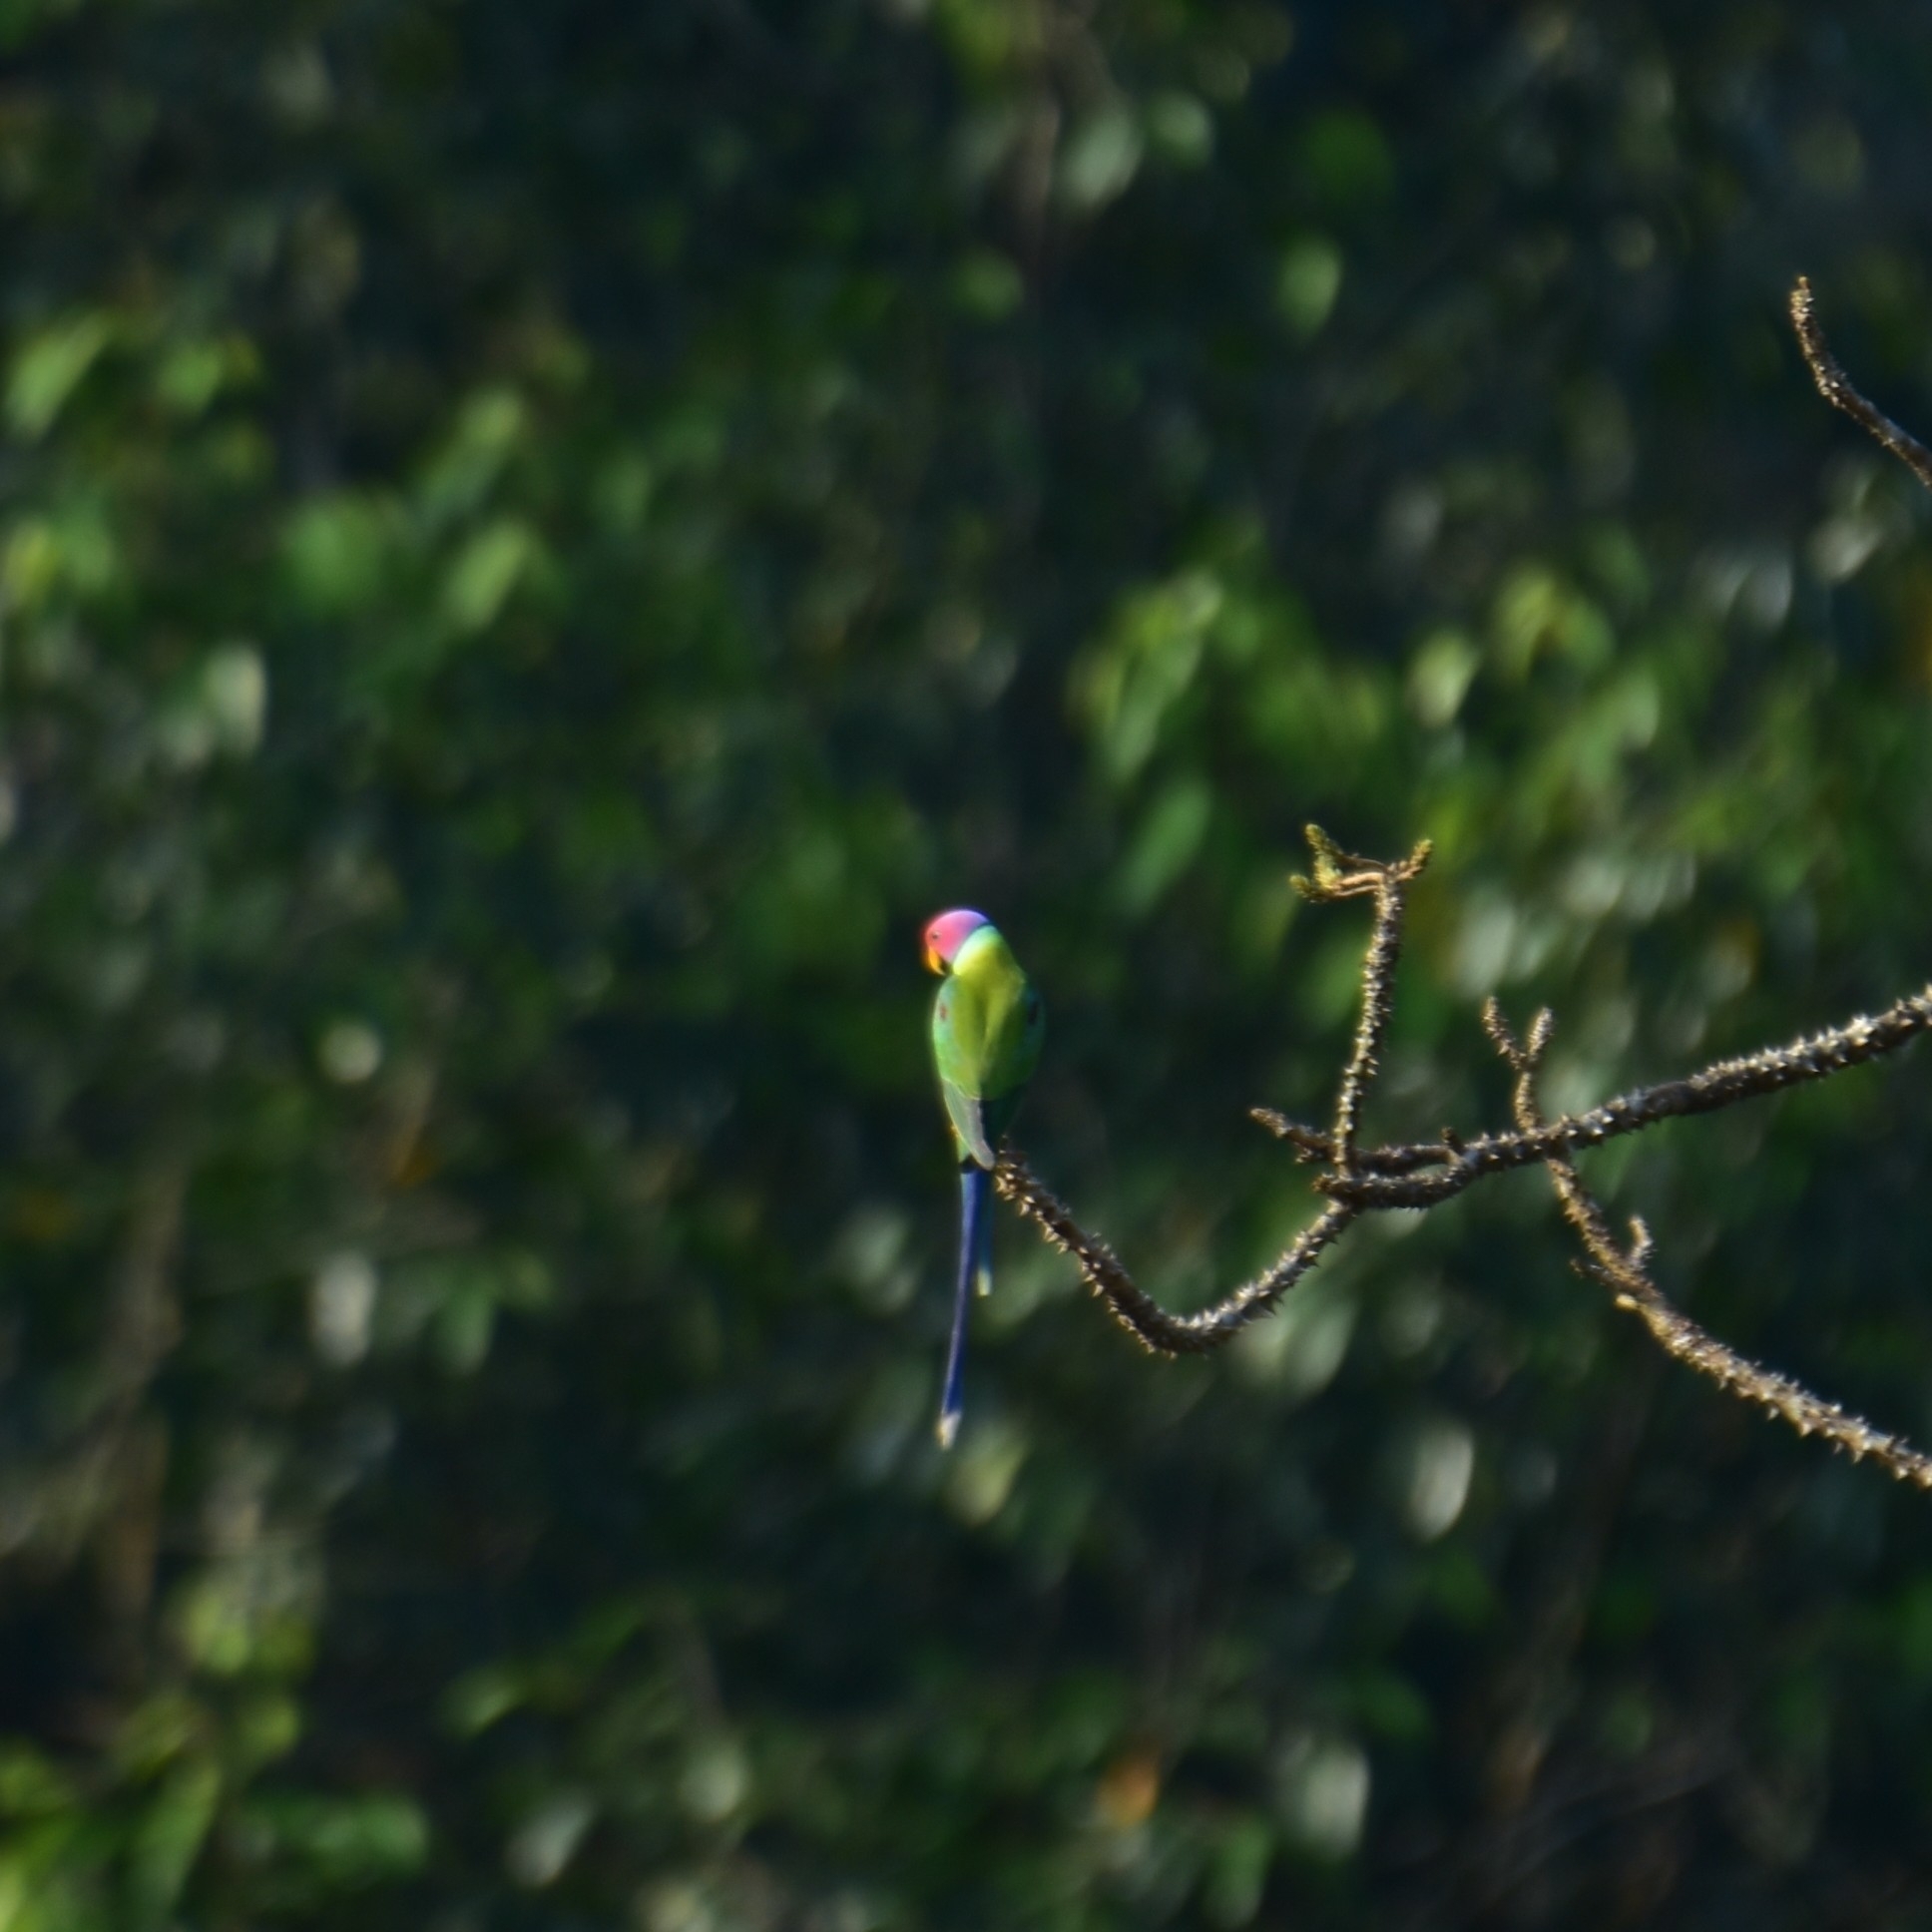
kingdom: Animalia
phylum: Chordata
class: Aves
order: Psittaciformes
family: Psittacidae
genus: Psittacula
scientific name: Psittacula cyanocephala
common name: Plum-headed parakeet
